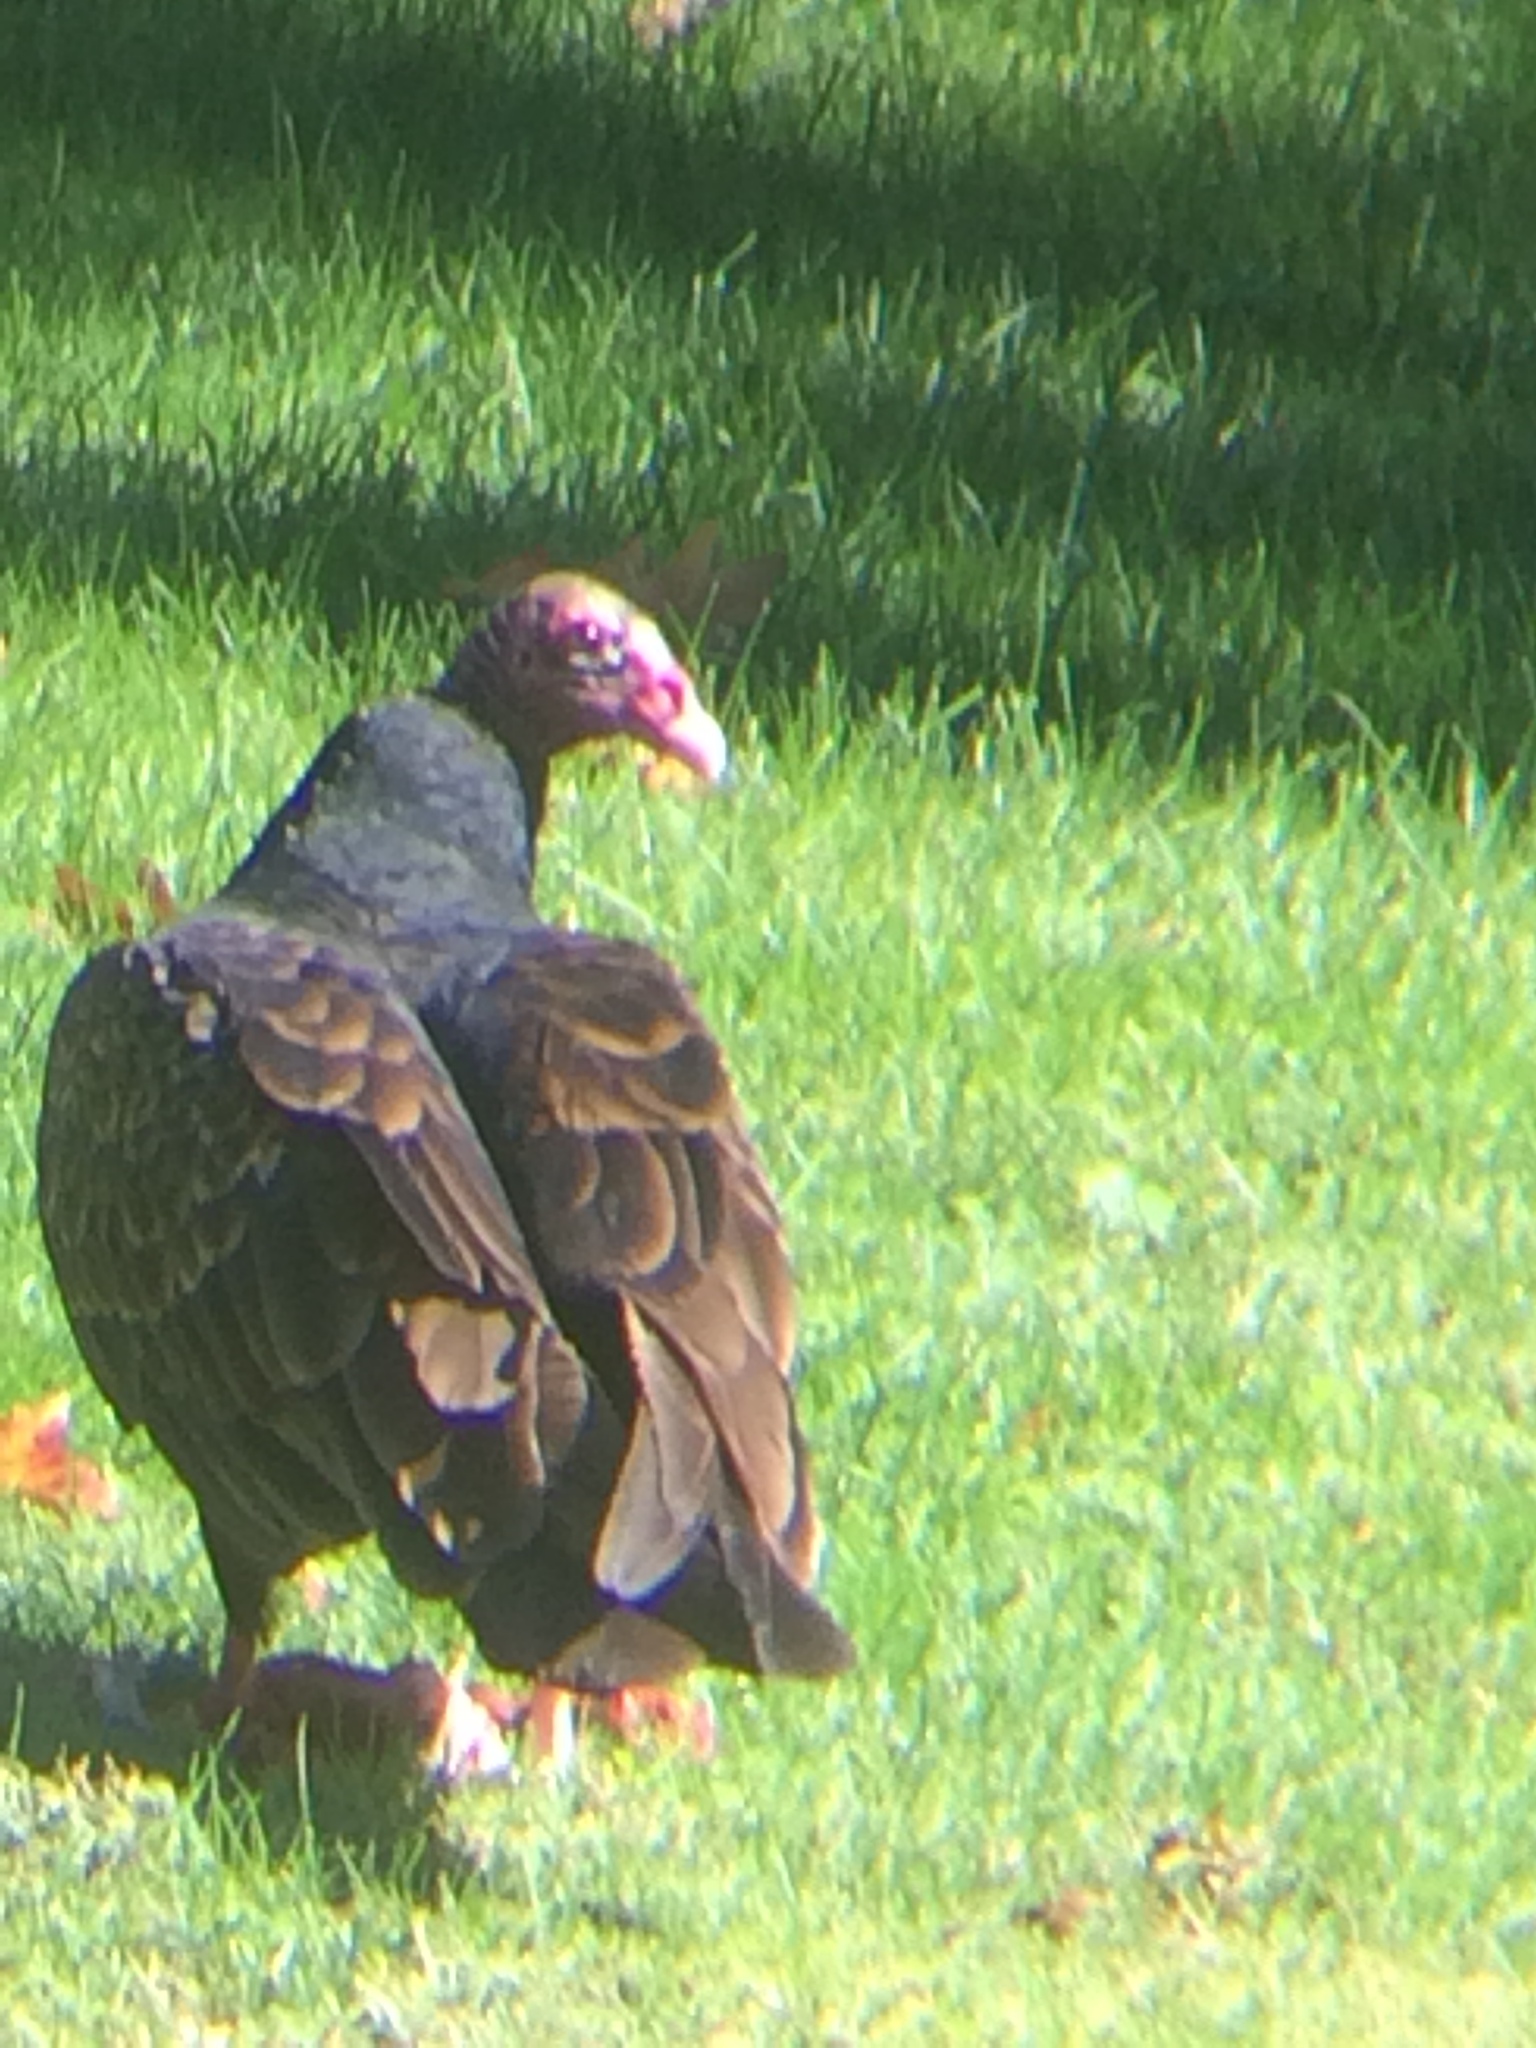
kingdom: Animalia
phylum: Chordata
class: Aves
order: Accipitriformes
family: Cathartidae
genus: Cathartes
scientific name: Cathartes aura
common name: Turkey vulture
